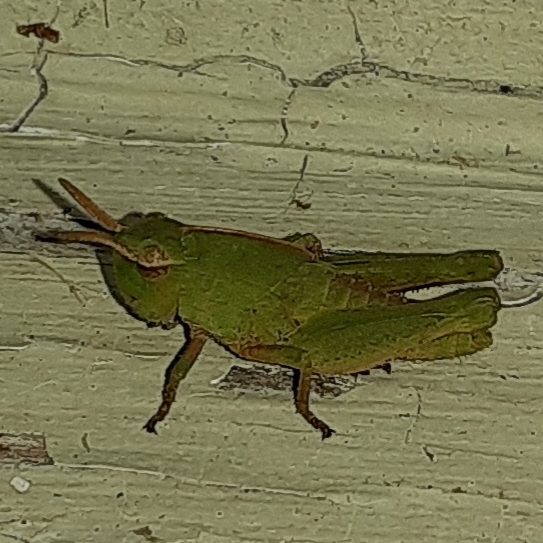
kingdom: Animalia
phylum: Arthropoda
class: Insecta
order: Orthoptera
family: Acrididae
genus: Chortophaga
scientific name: Chortophaga viridifasciata
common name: Green-striped grasshopper
